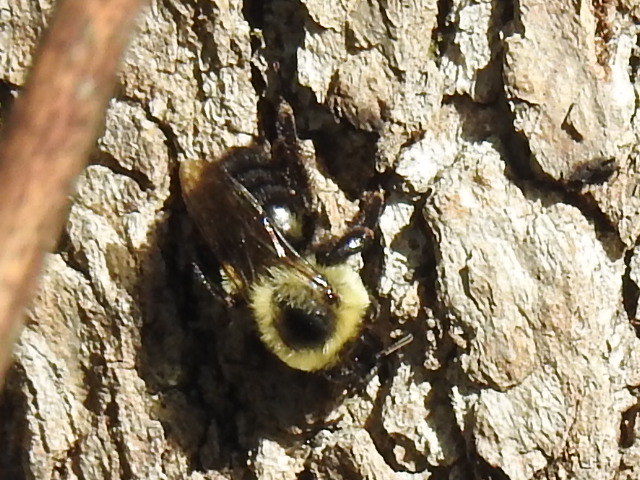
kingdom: Animalia
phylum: Arthropoda
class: Insecta
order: Hymenoptera
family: Apidae
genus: Bombus
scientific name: Bombus impatiens
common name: Common eastern bumble bee
